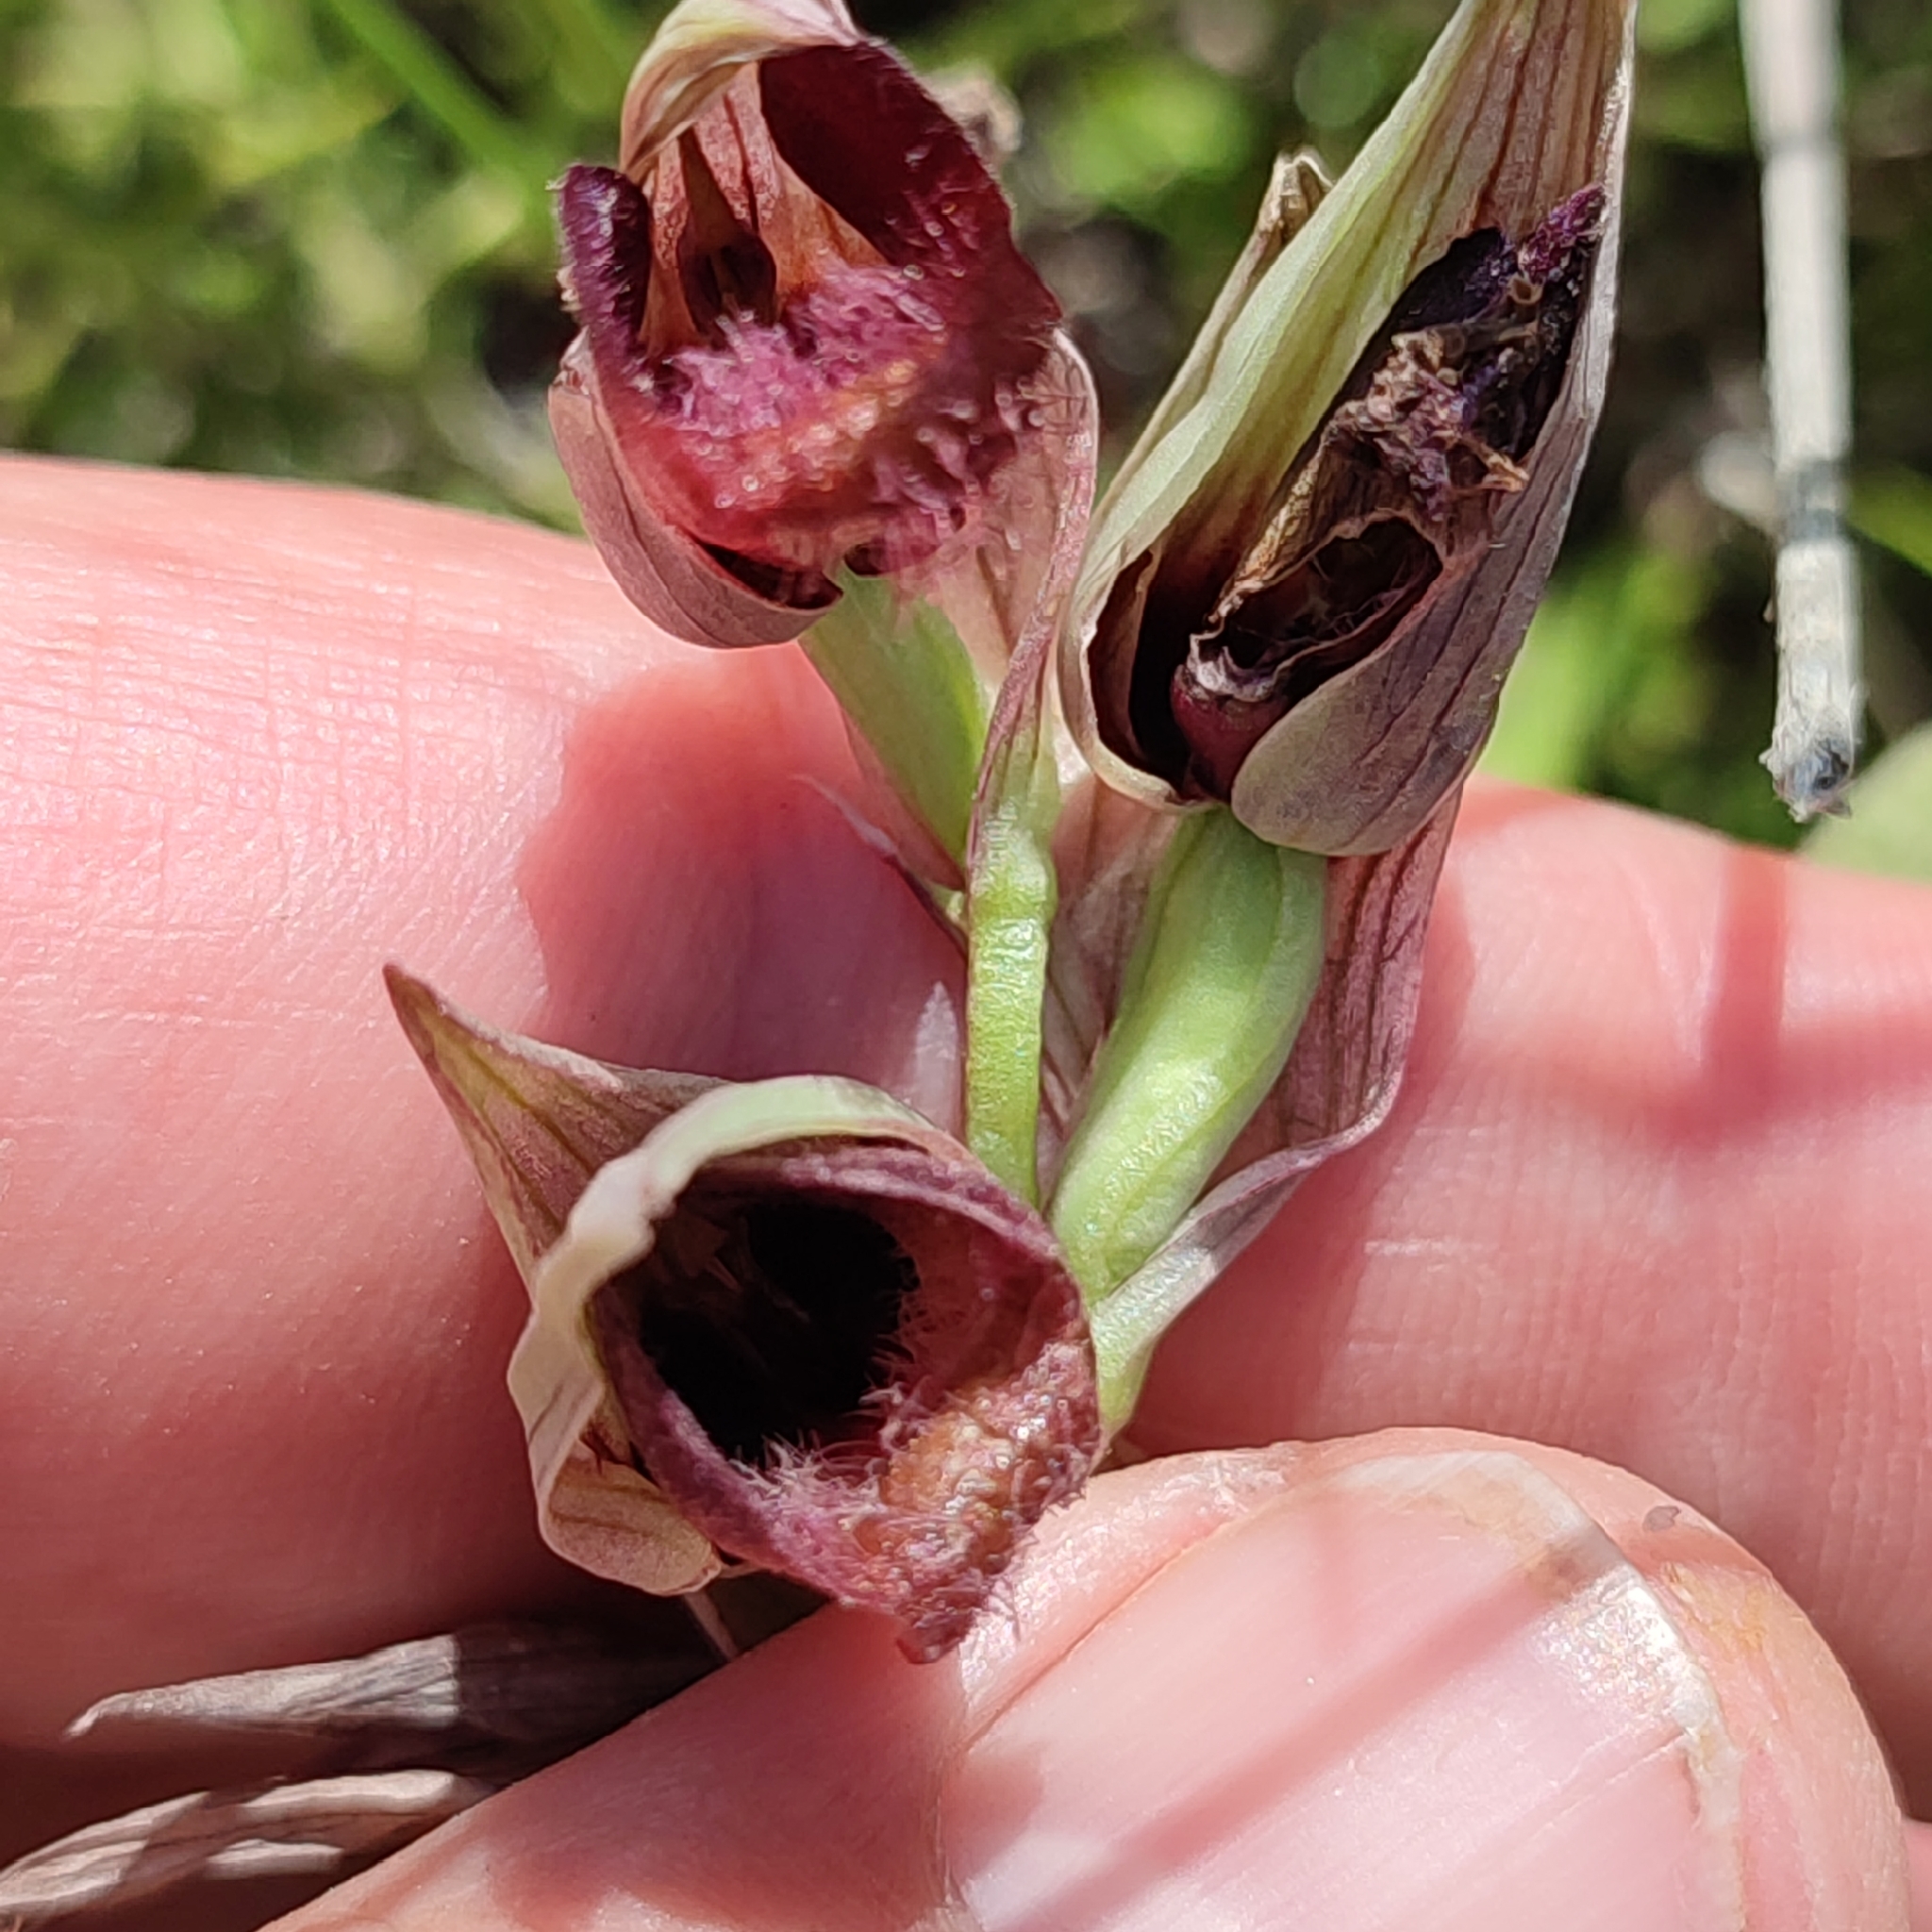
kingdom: Plantae
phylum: Tracheophyta
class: Liliopsida
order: Asparagales
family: Orchidaceae
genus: Serapias
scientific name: Serapias parviflora
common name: Small-flowered tongue-orchid
